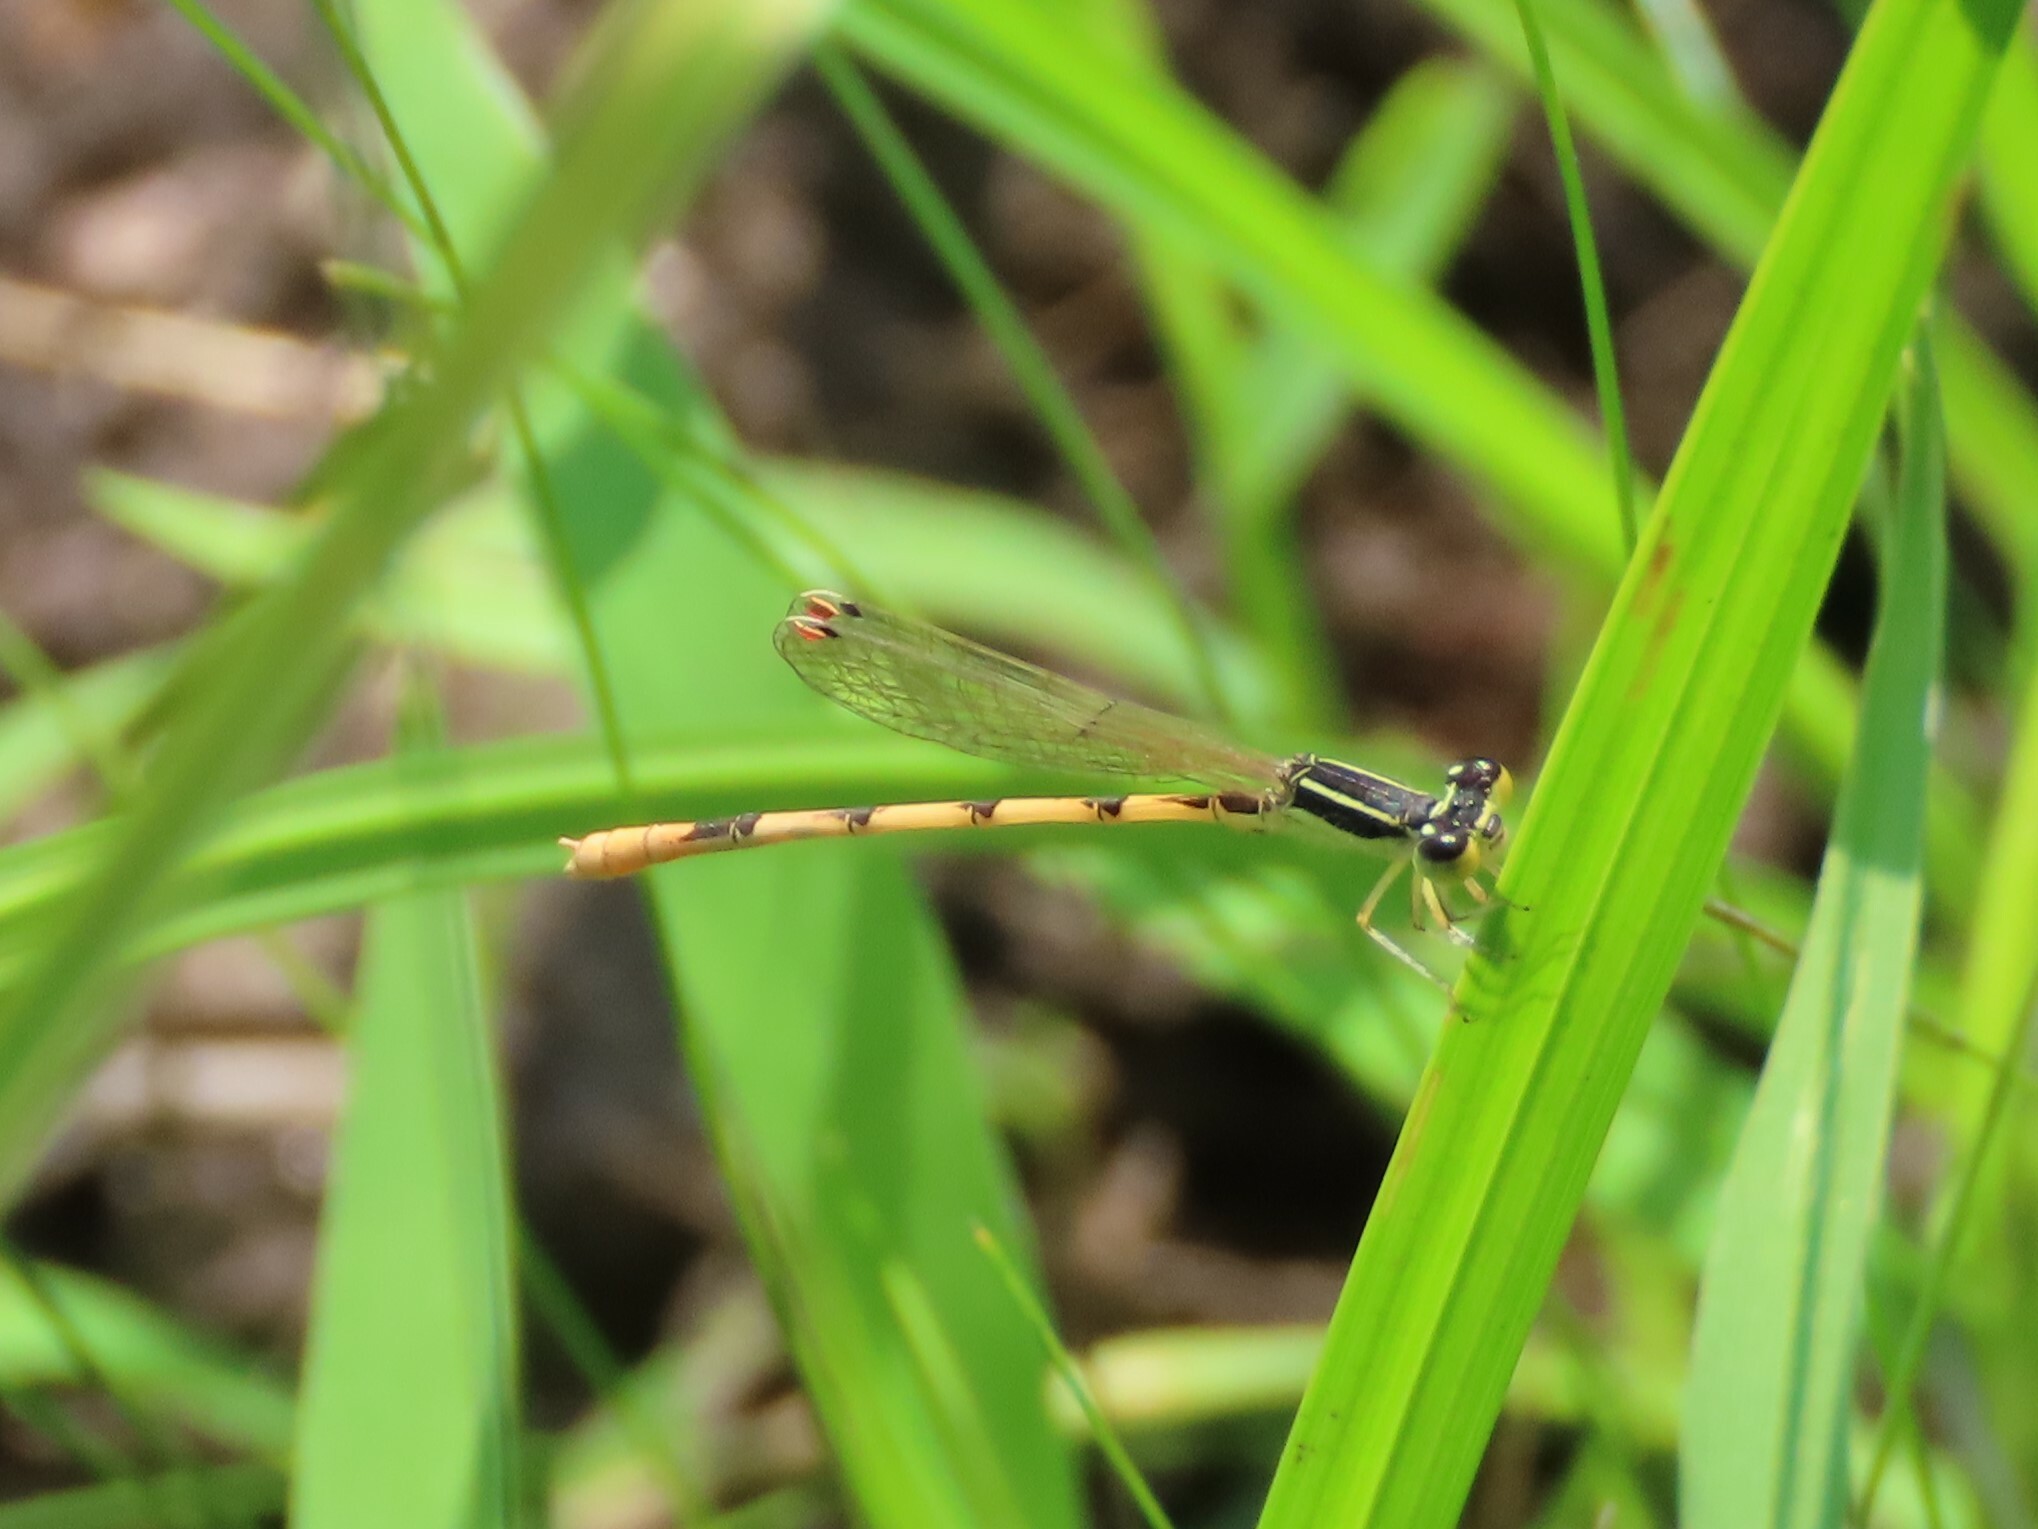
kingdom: Animalia
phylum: Arthropoda
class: Insecta
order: Odonata
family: Coenagrionidae
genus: Ischnura
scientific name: Ischnura hastata
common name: Citrine forktail
